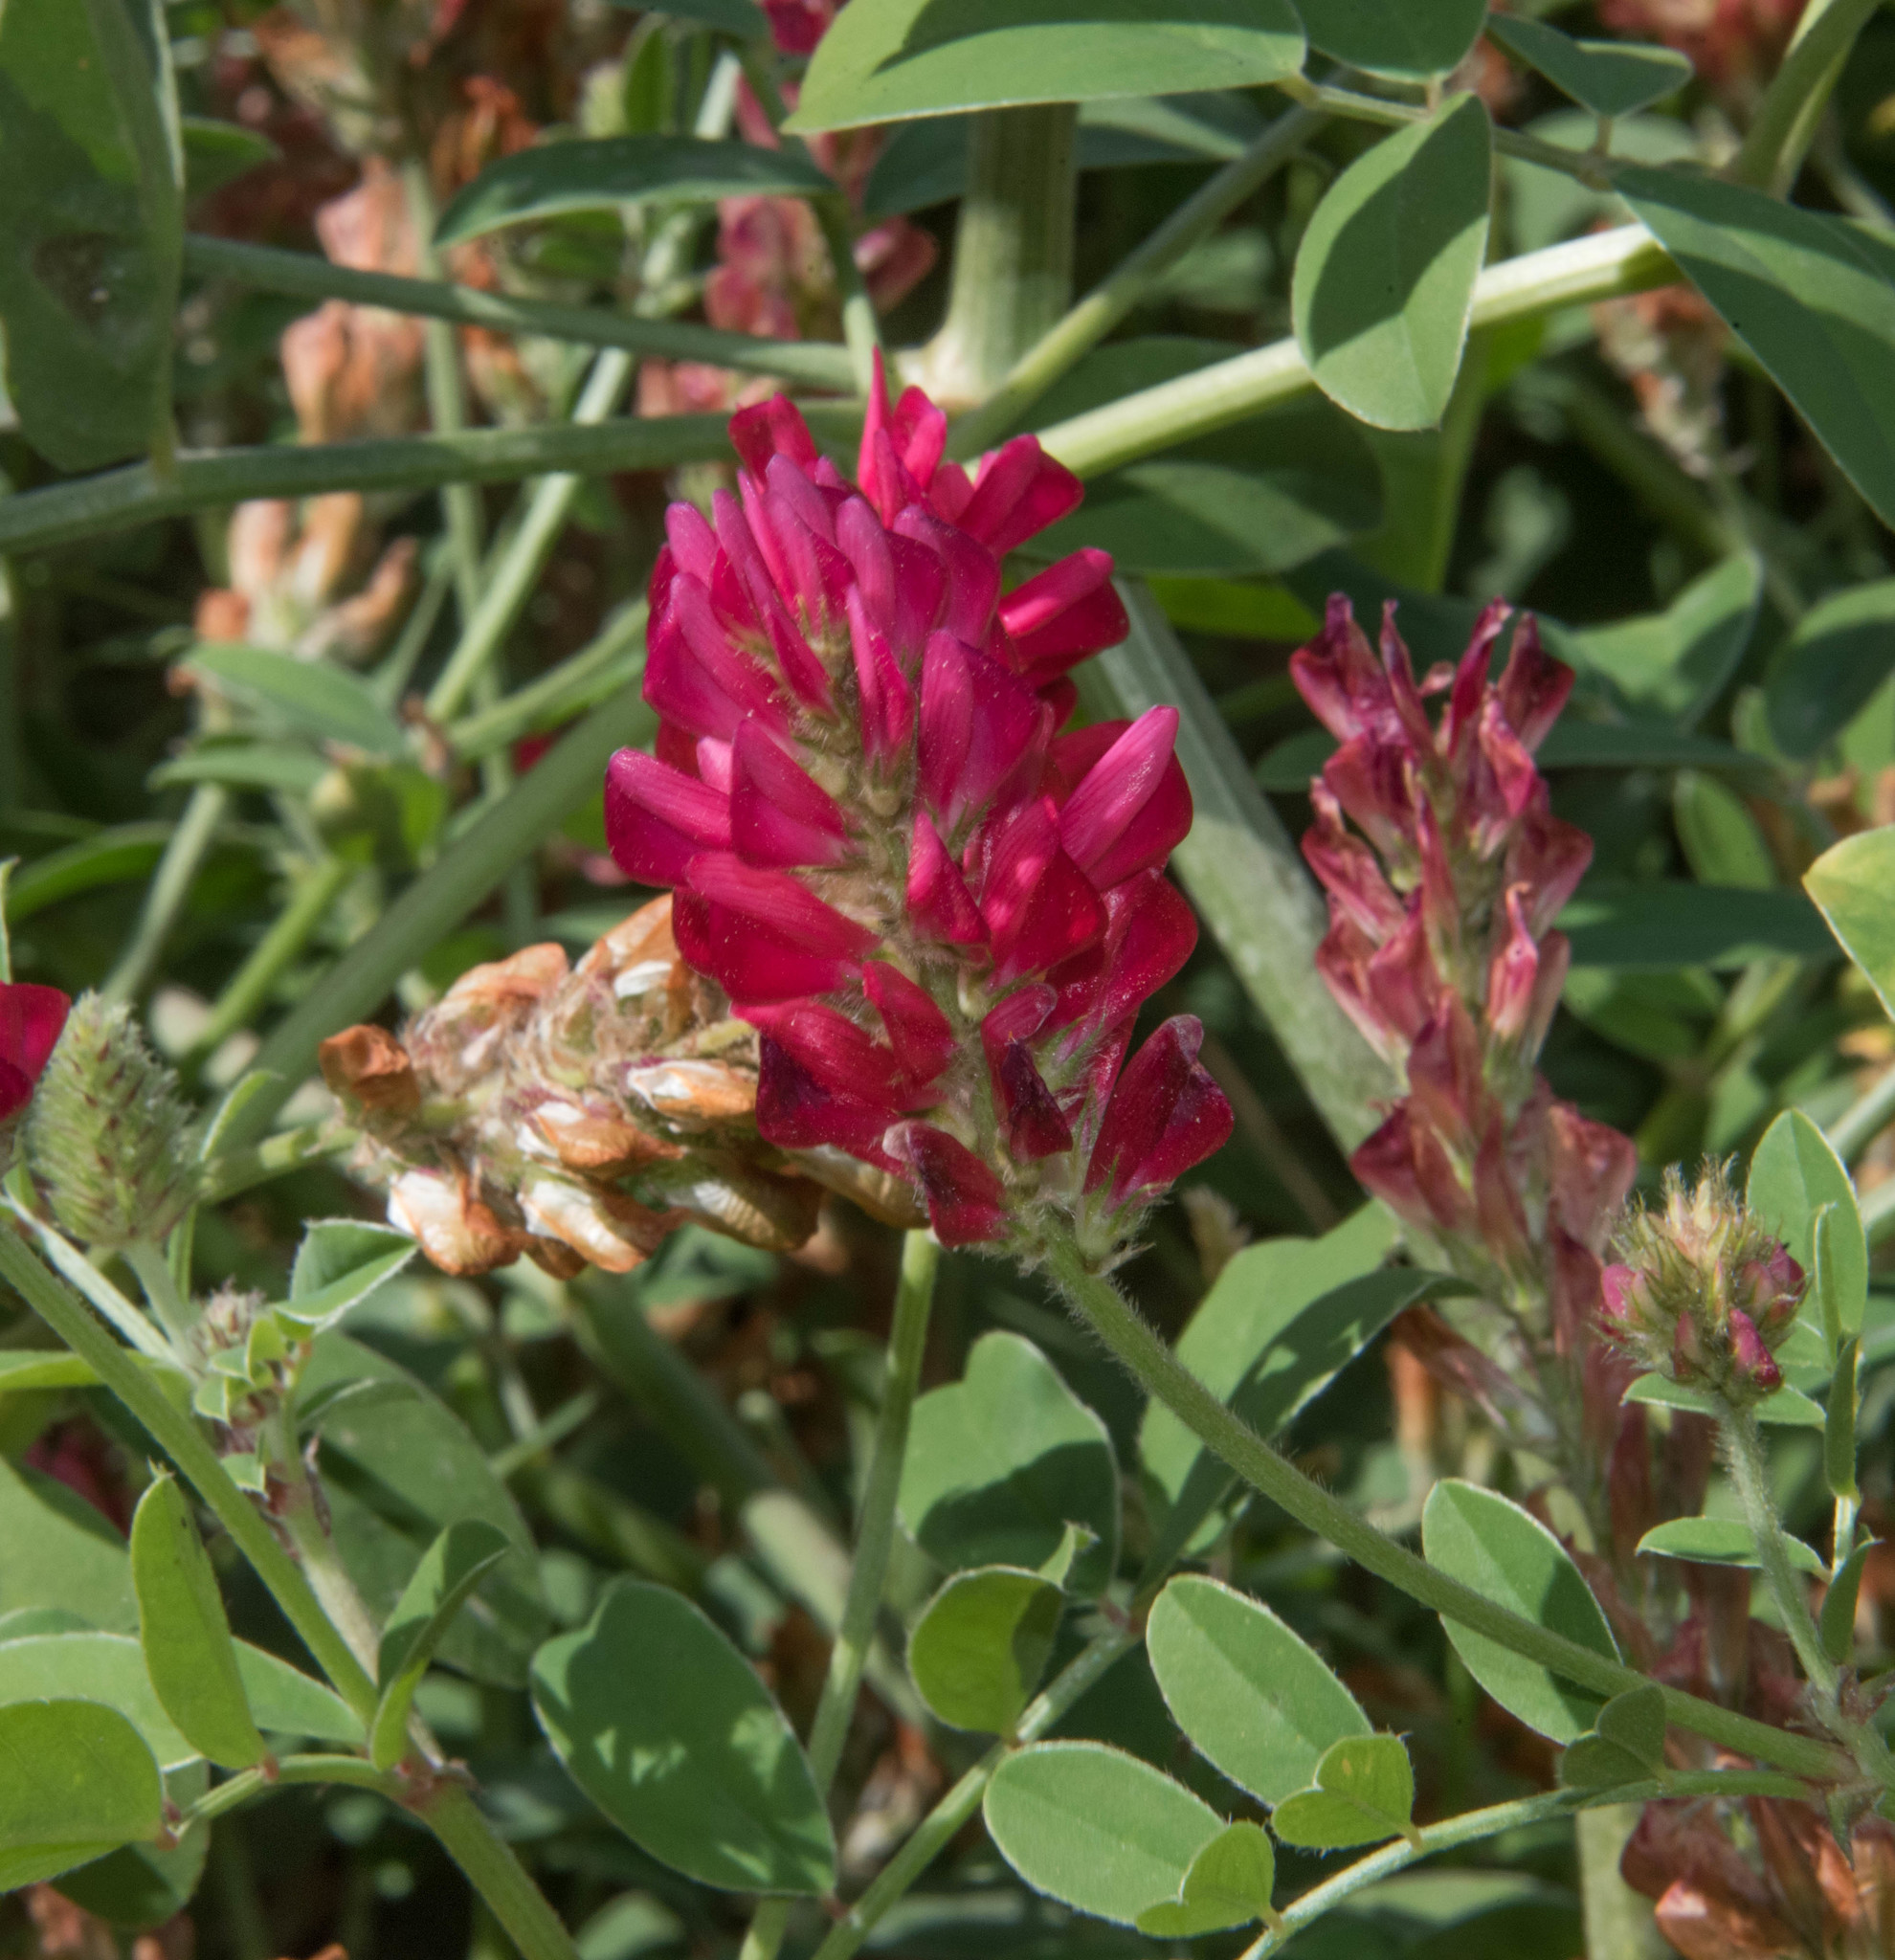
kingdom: Plantae
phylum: Tracheophyta
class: Magnoliopsida
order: Fabales
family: Fabaceae
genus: Sulla
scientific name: Sulla coronaria
